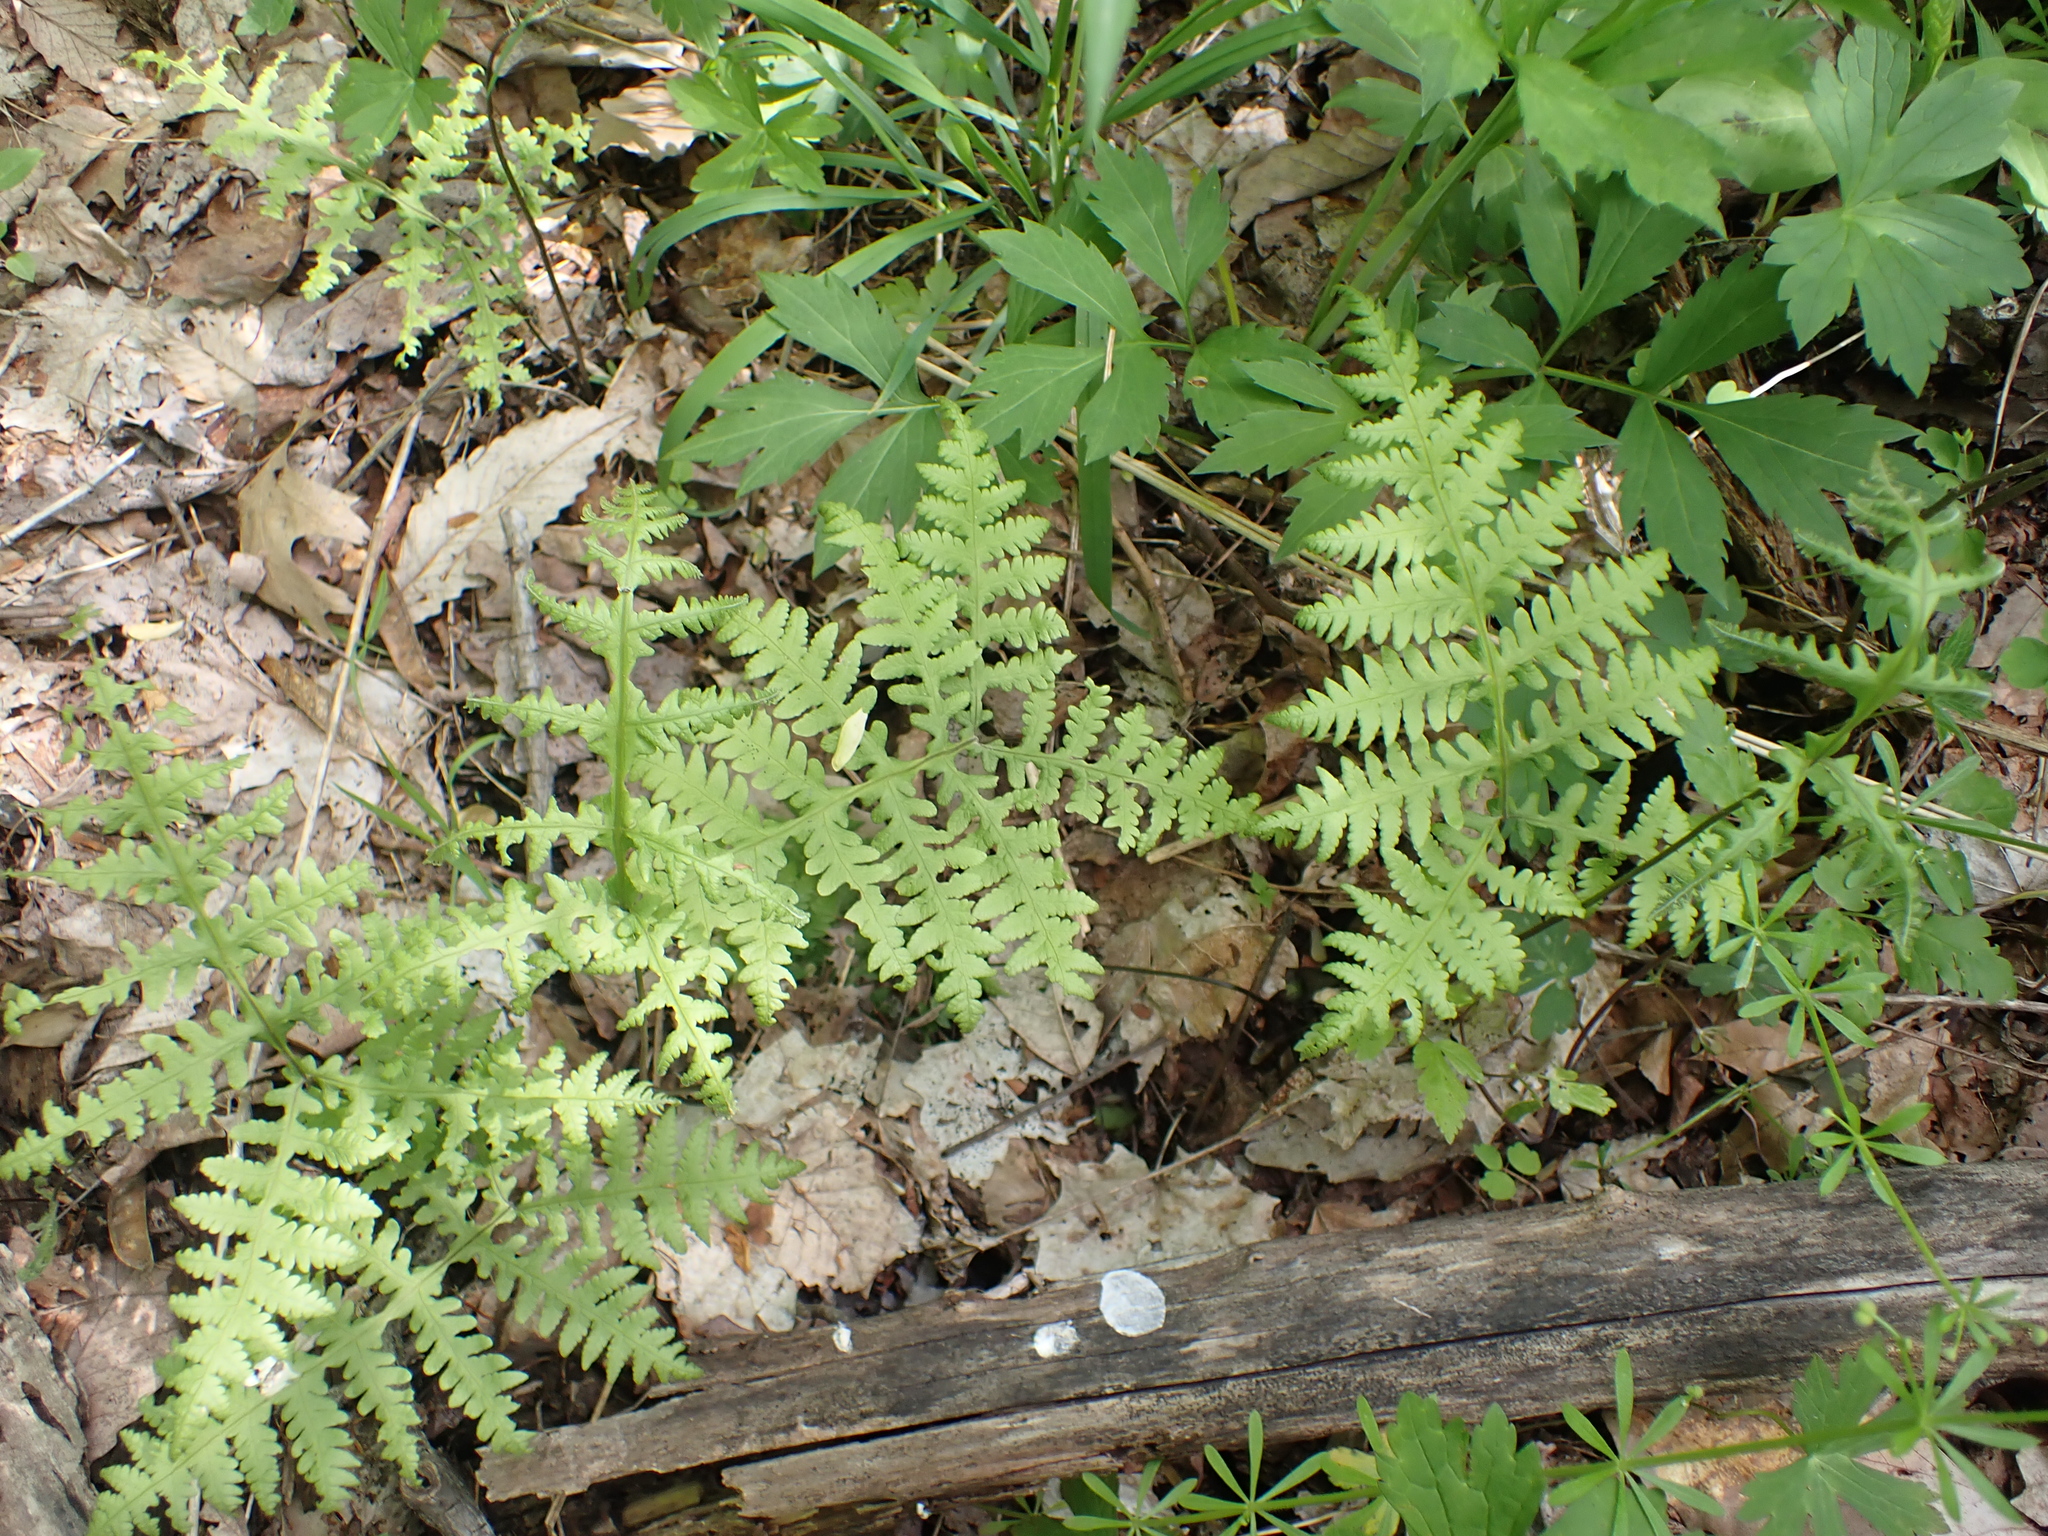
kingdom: Plantae
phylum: Tracheophyta
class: Polypodiopsida
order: Polypodiales
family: Thelypteridaceae
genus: Phegopteris
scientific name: Phegopteris hexagonoptera
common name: Broad beech fern
